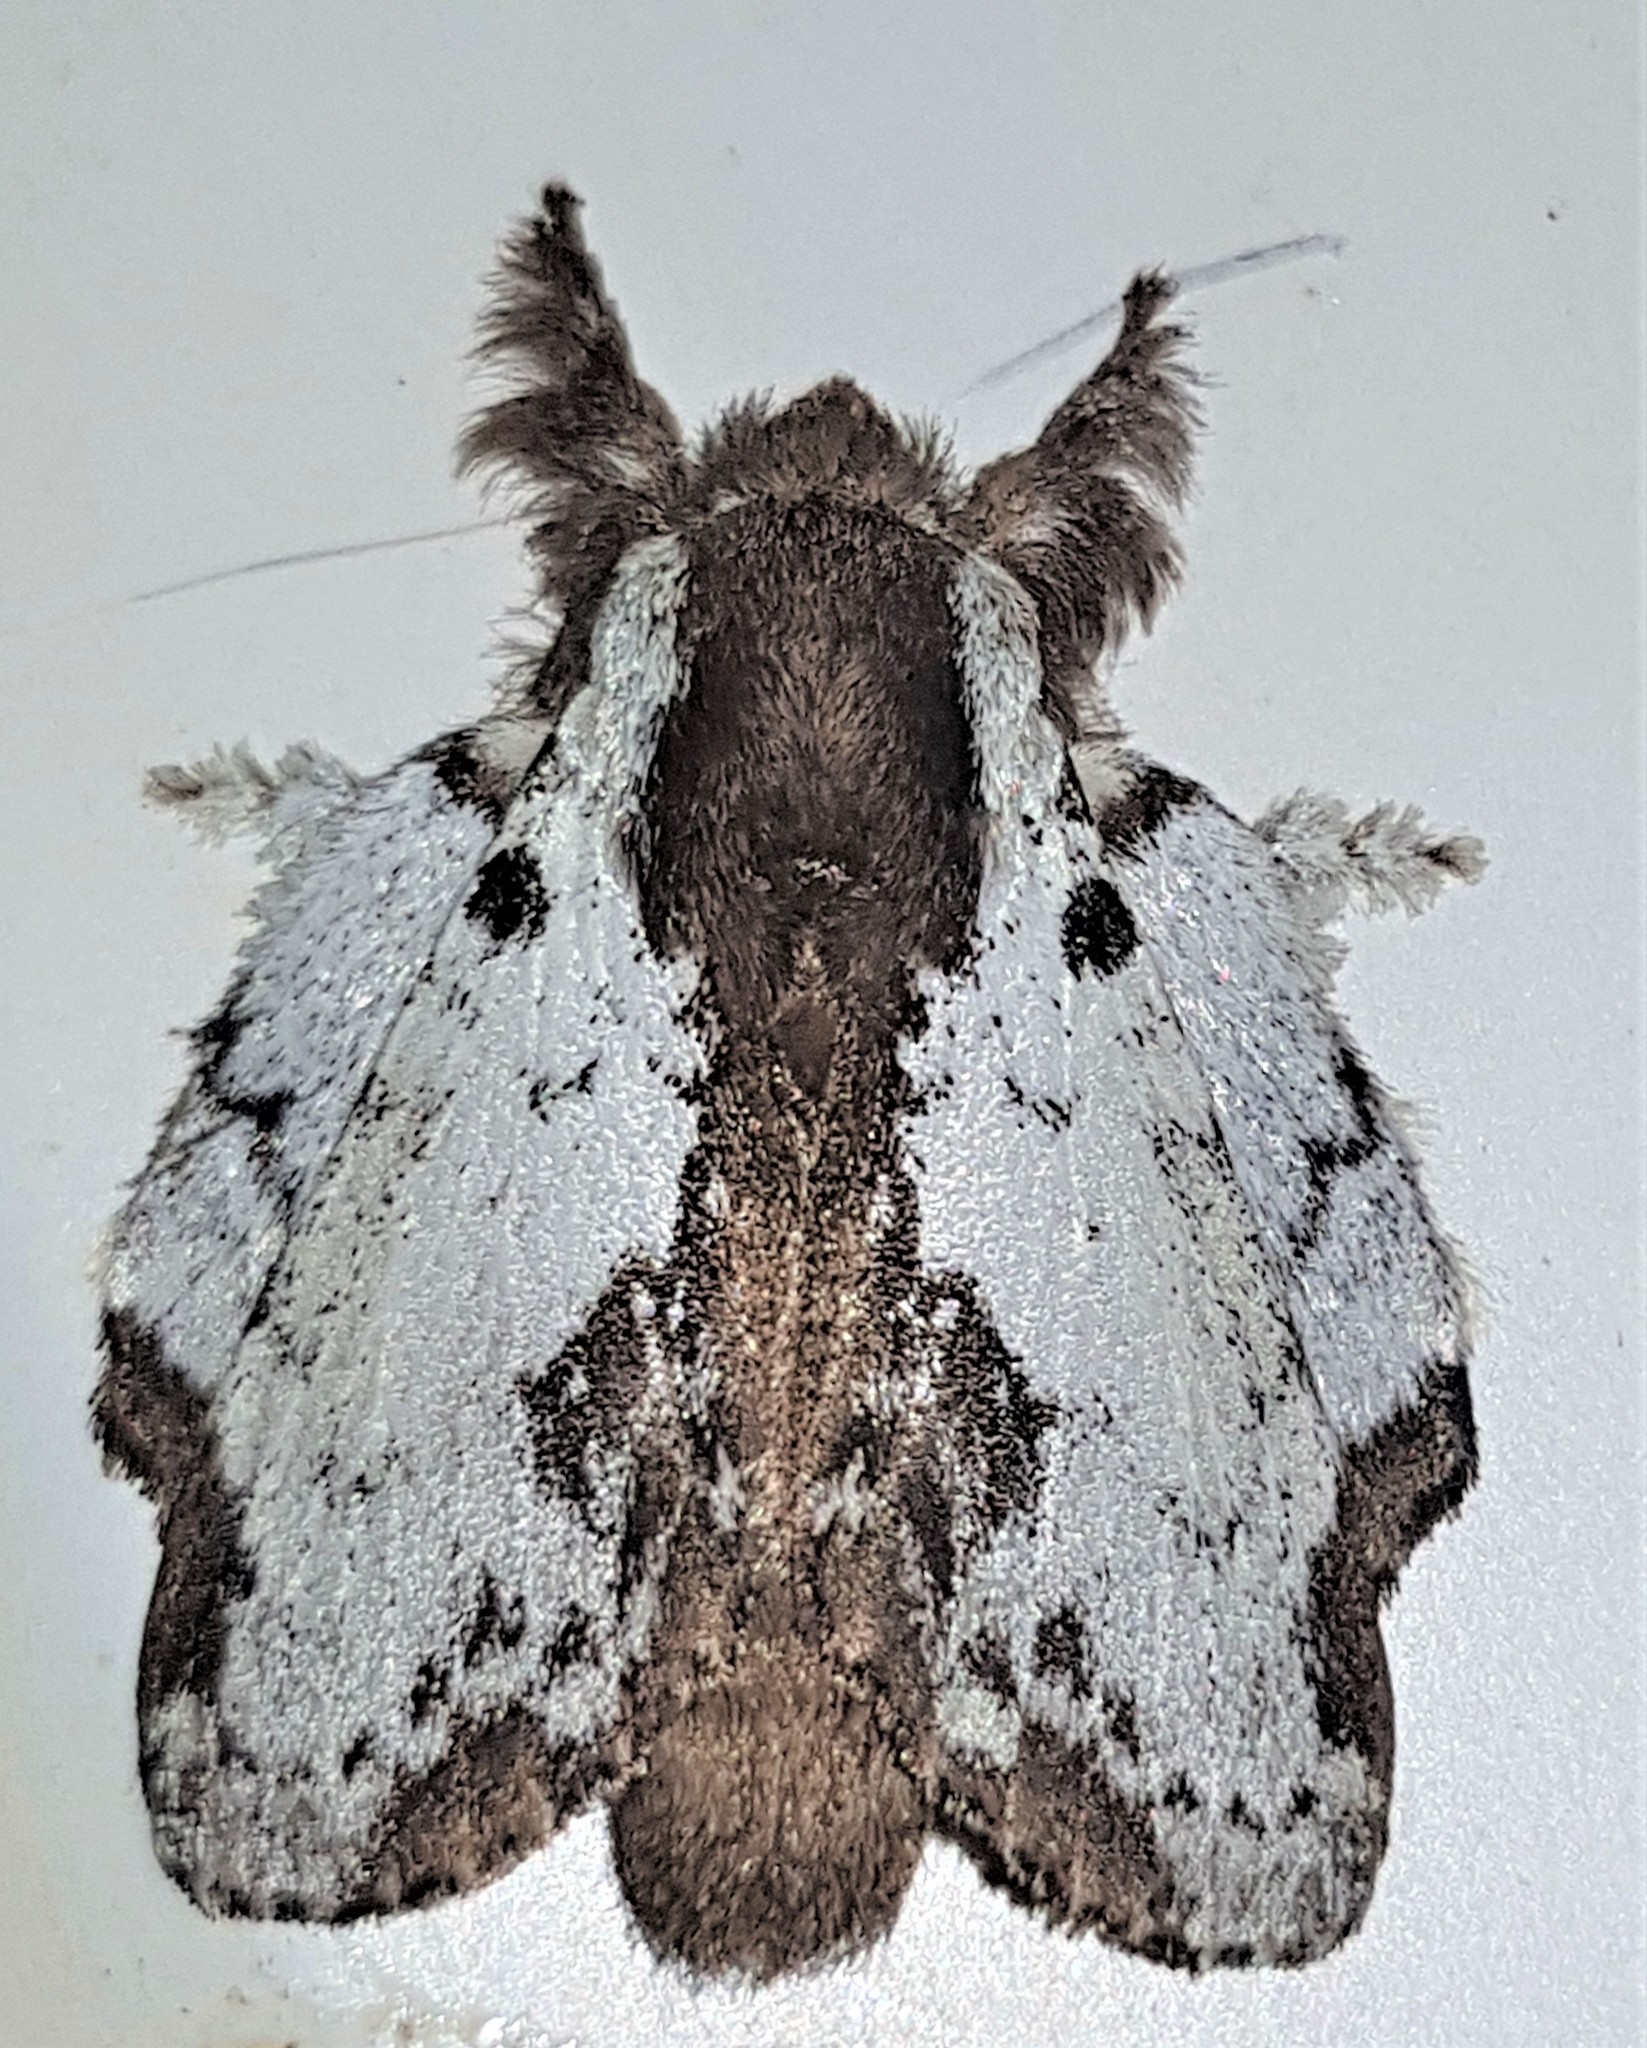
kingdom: Animalia
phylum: Arthropoda
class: Insecta
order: Lepidoptera
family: Lasiocampidae
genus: Euglyphis
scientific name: Euglyphis braganza
